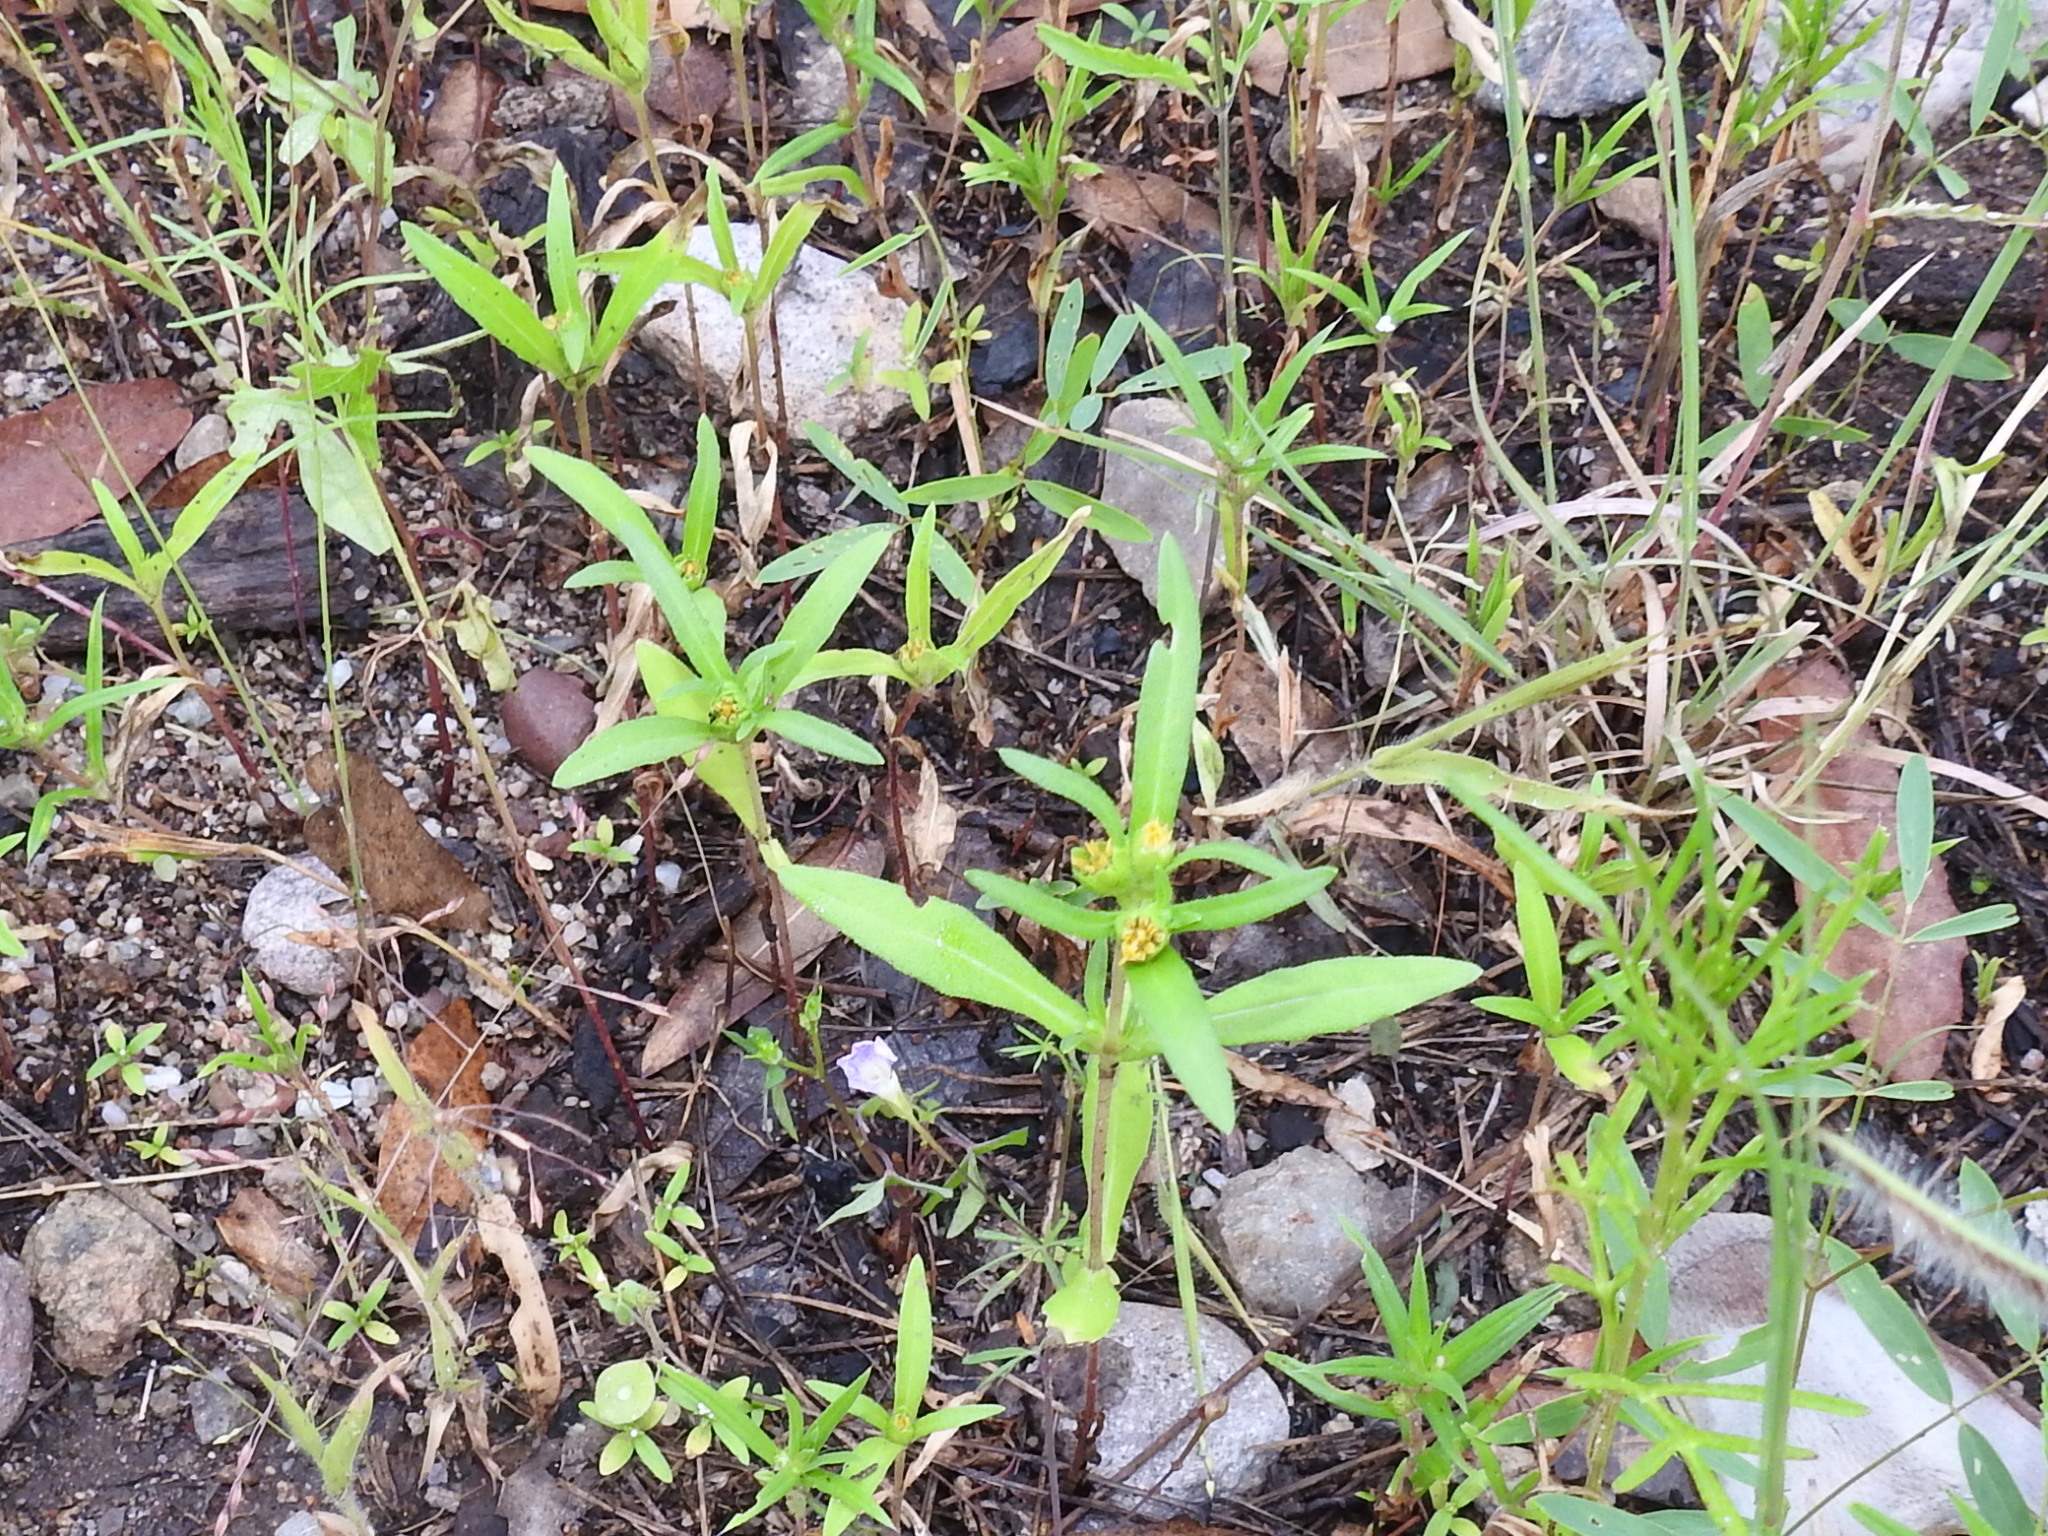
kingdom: Plantae
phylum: Tracheophyta
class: Magnoliopsida
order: Asterales
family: Asteraceae
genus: Melampodium
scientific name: Melampodium strigosum
